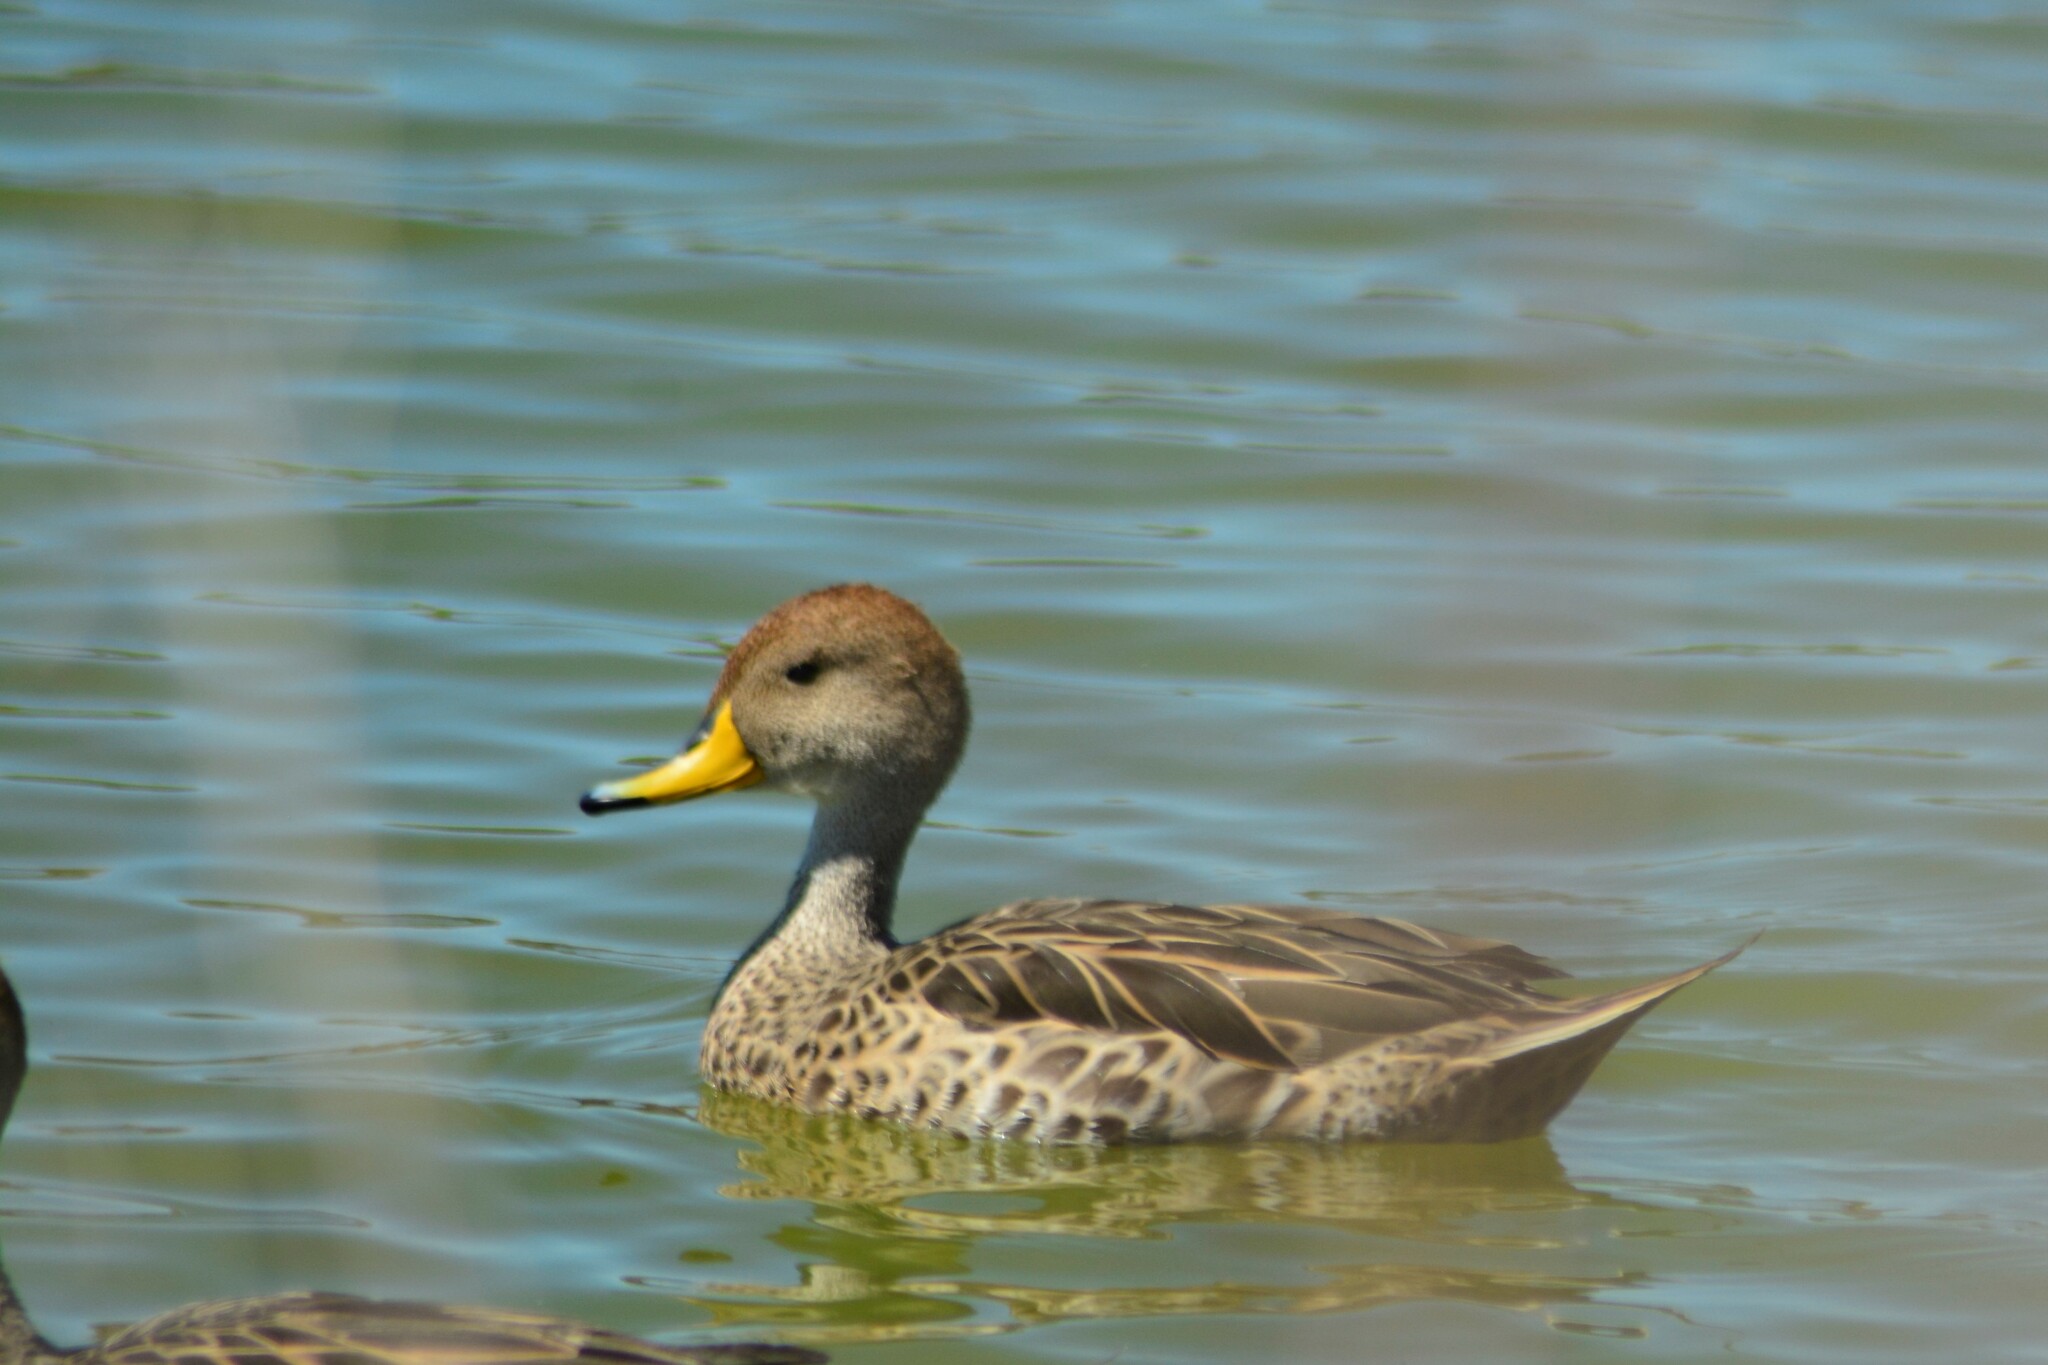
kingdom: Animalia
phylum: Chordata
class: Aves
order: Anseriformes
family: Anatidae
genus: Anas
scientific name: Anas georgica
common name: Yellow-billed pintail
